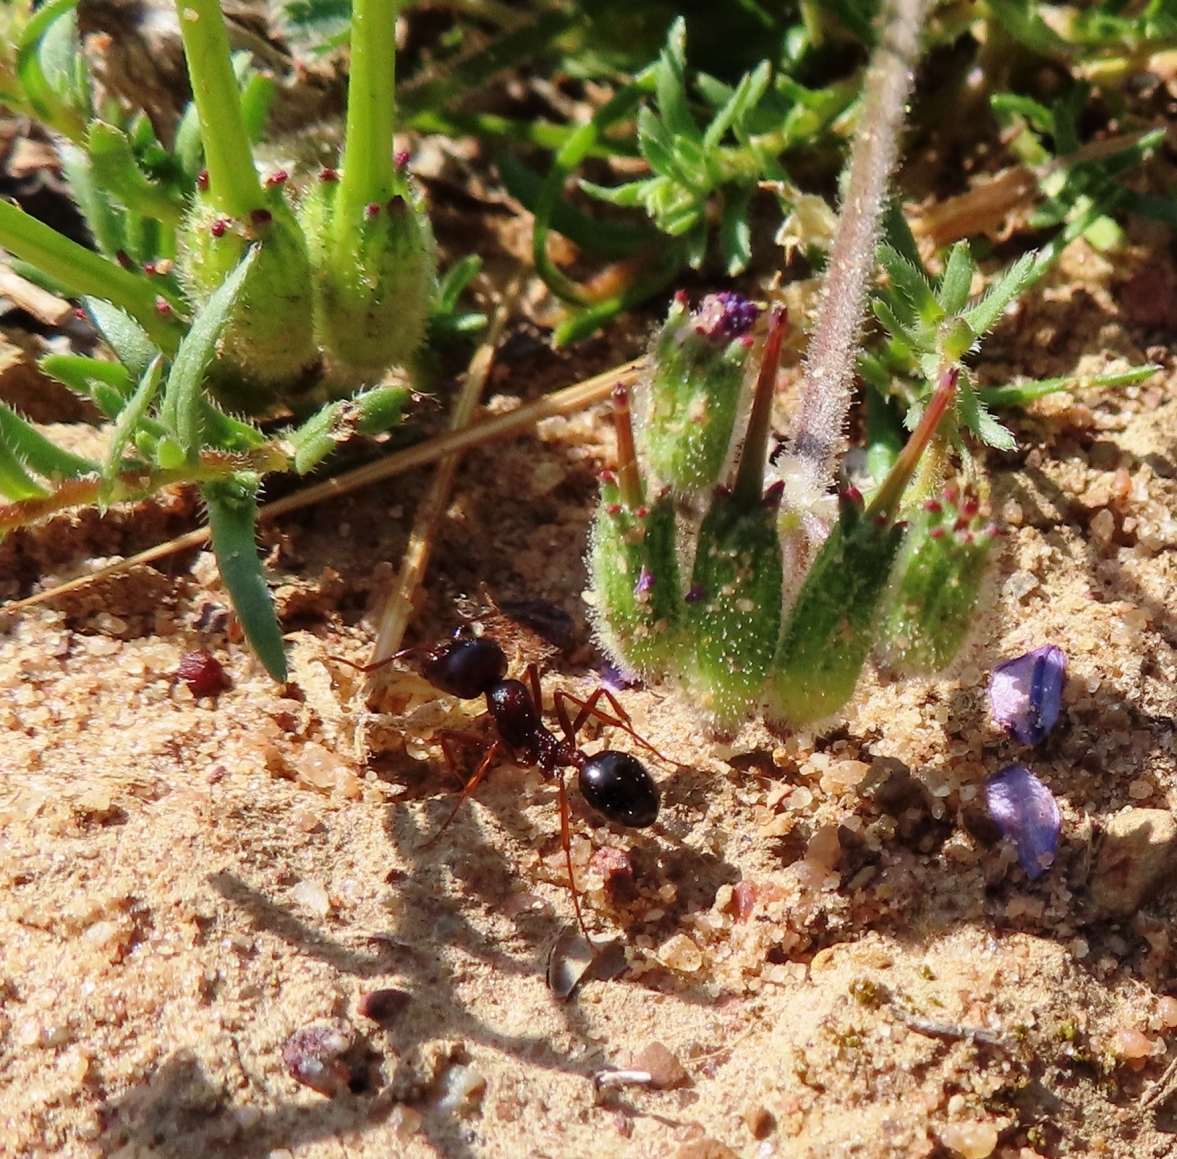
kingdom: Animalia
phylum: Arthropoda
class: Insecta
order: Hymenoptera
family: Formicidae
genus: Messor
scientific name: Messor striatifrons
